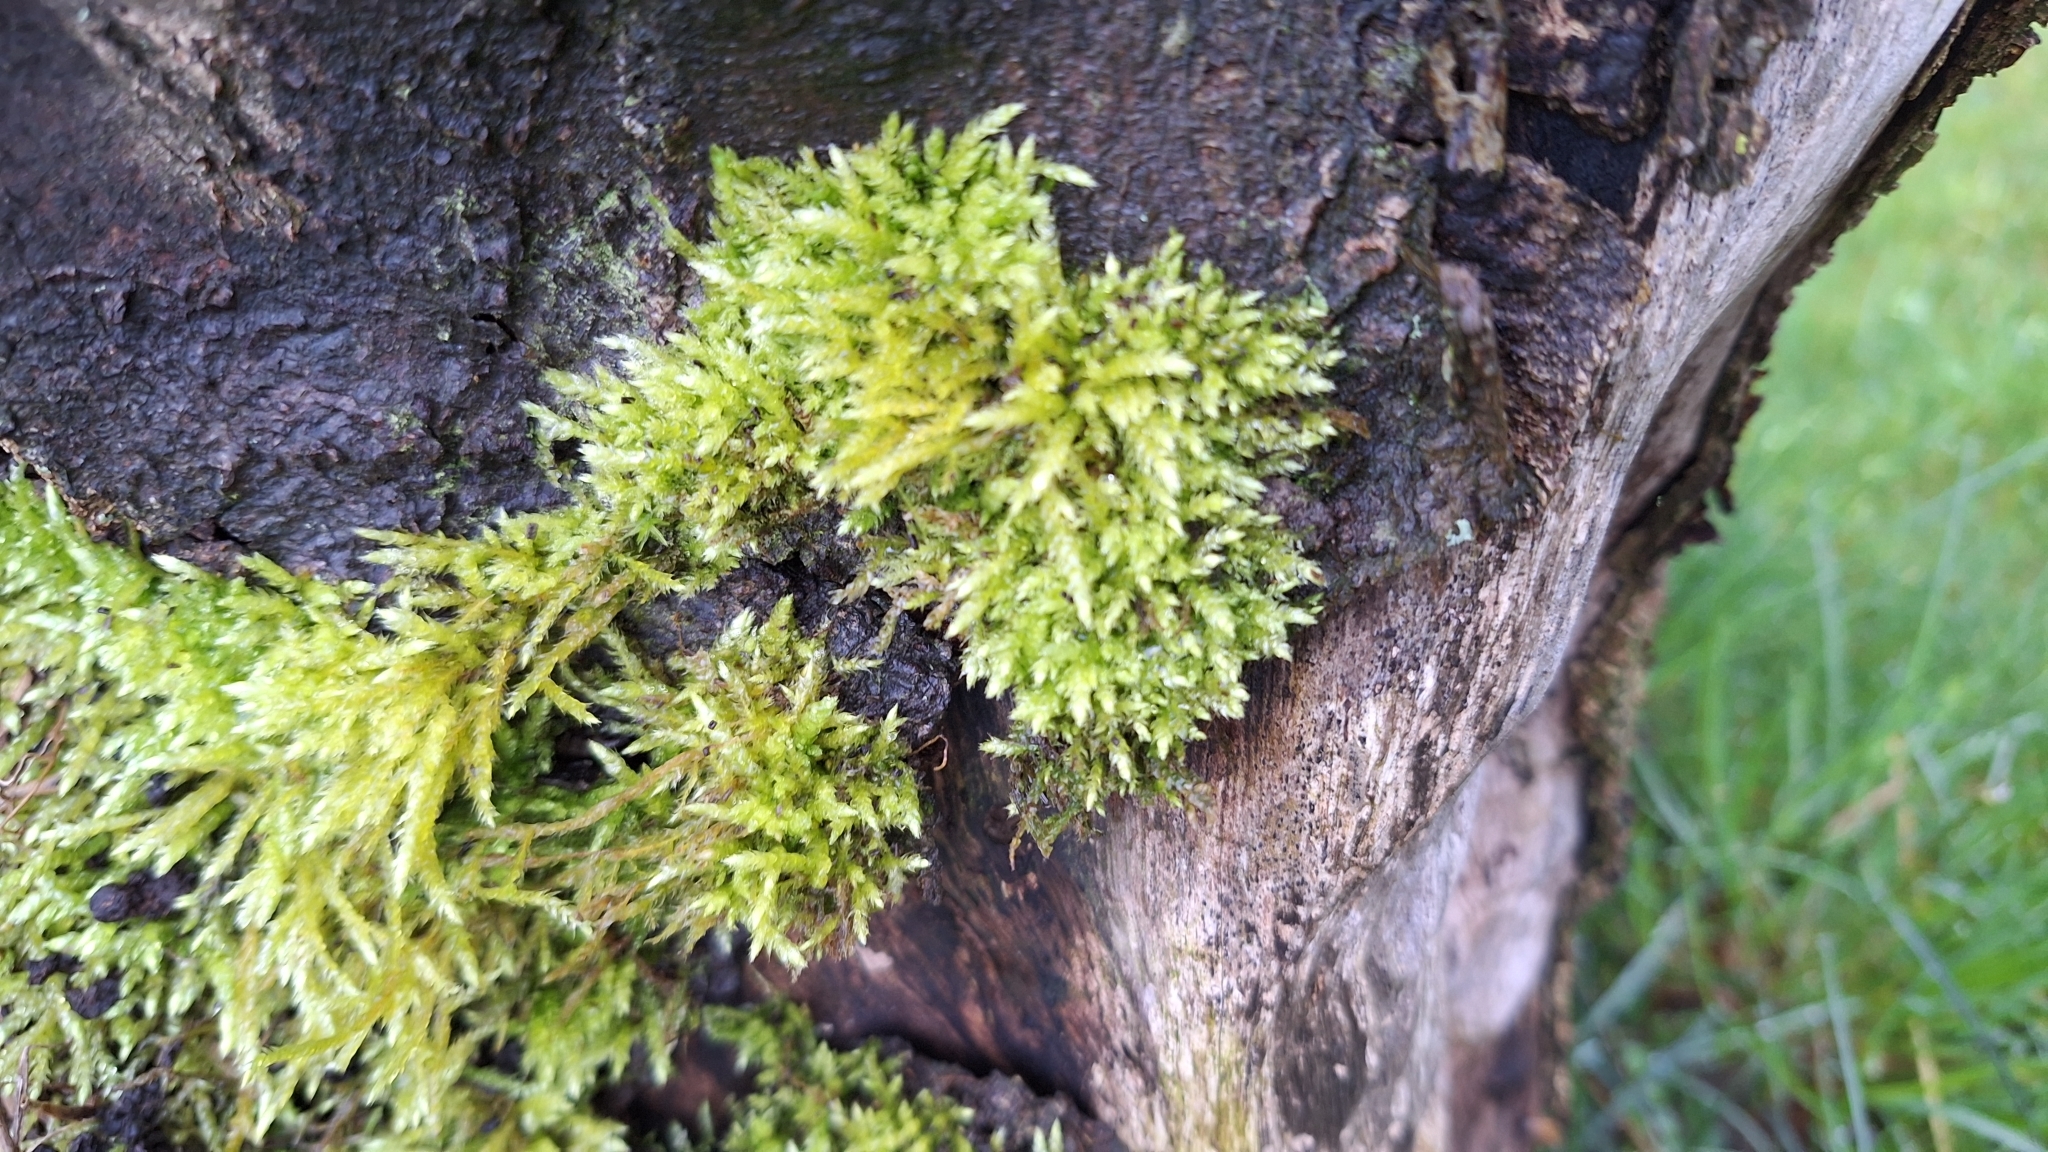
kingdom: Plantae
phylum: Bryophyta
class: Bryopsida
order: Hypnales
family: Brachytheciaceae
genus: Brachythecium
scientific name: Brachythecium rutabulum
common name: Rough-stalked feather-moss
